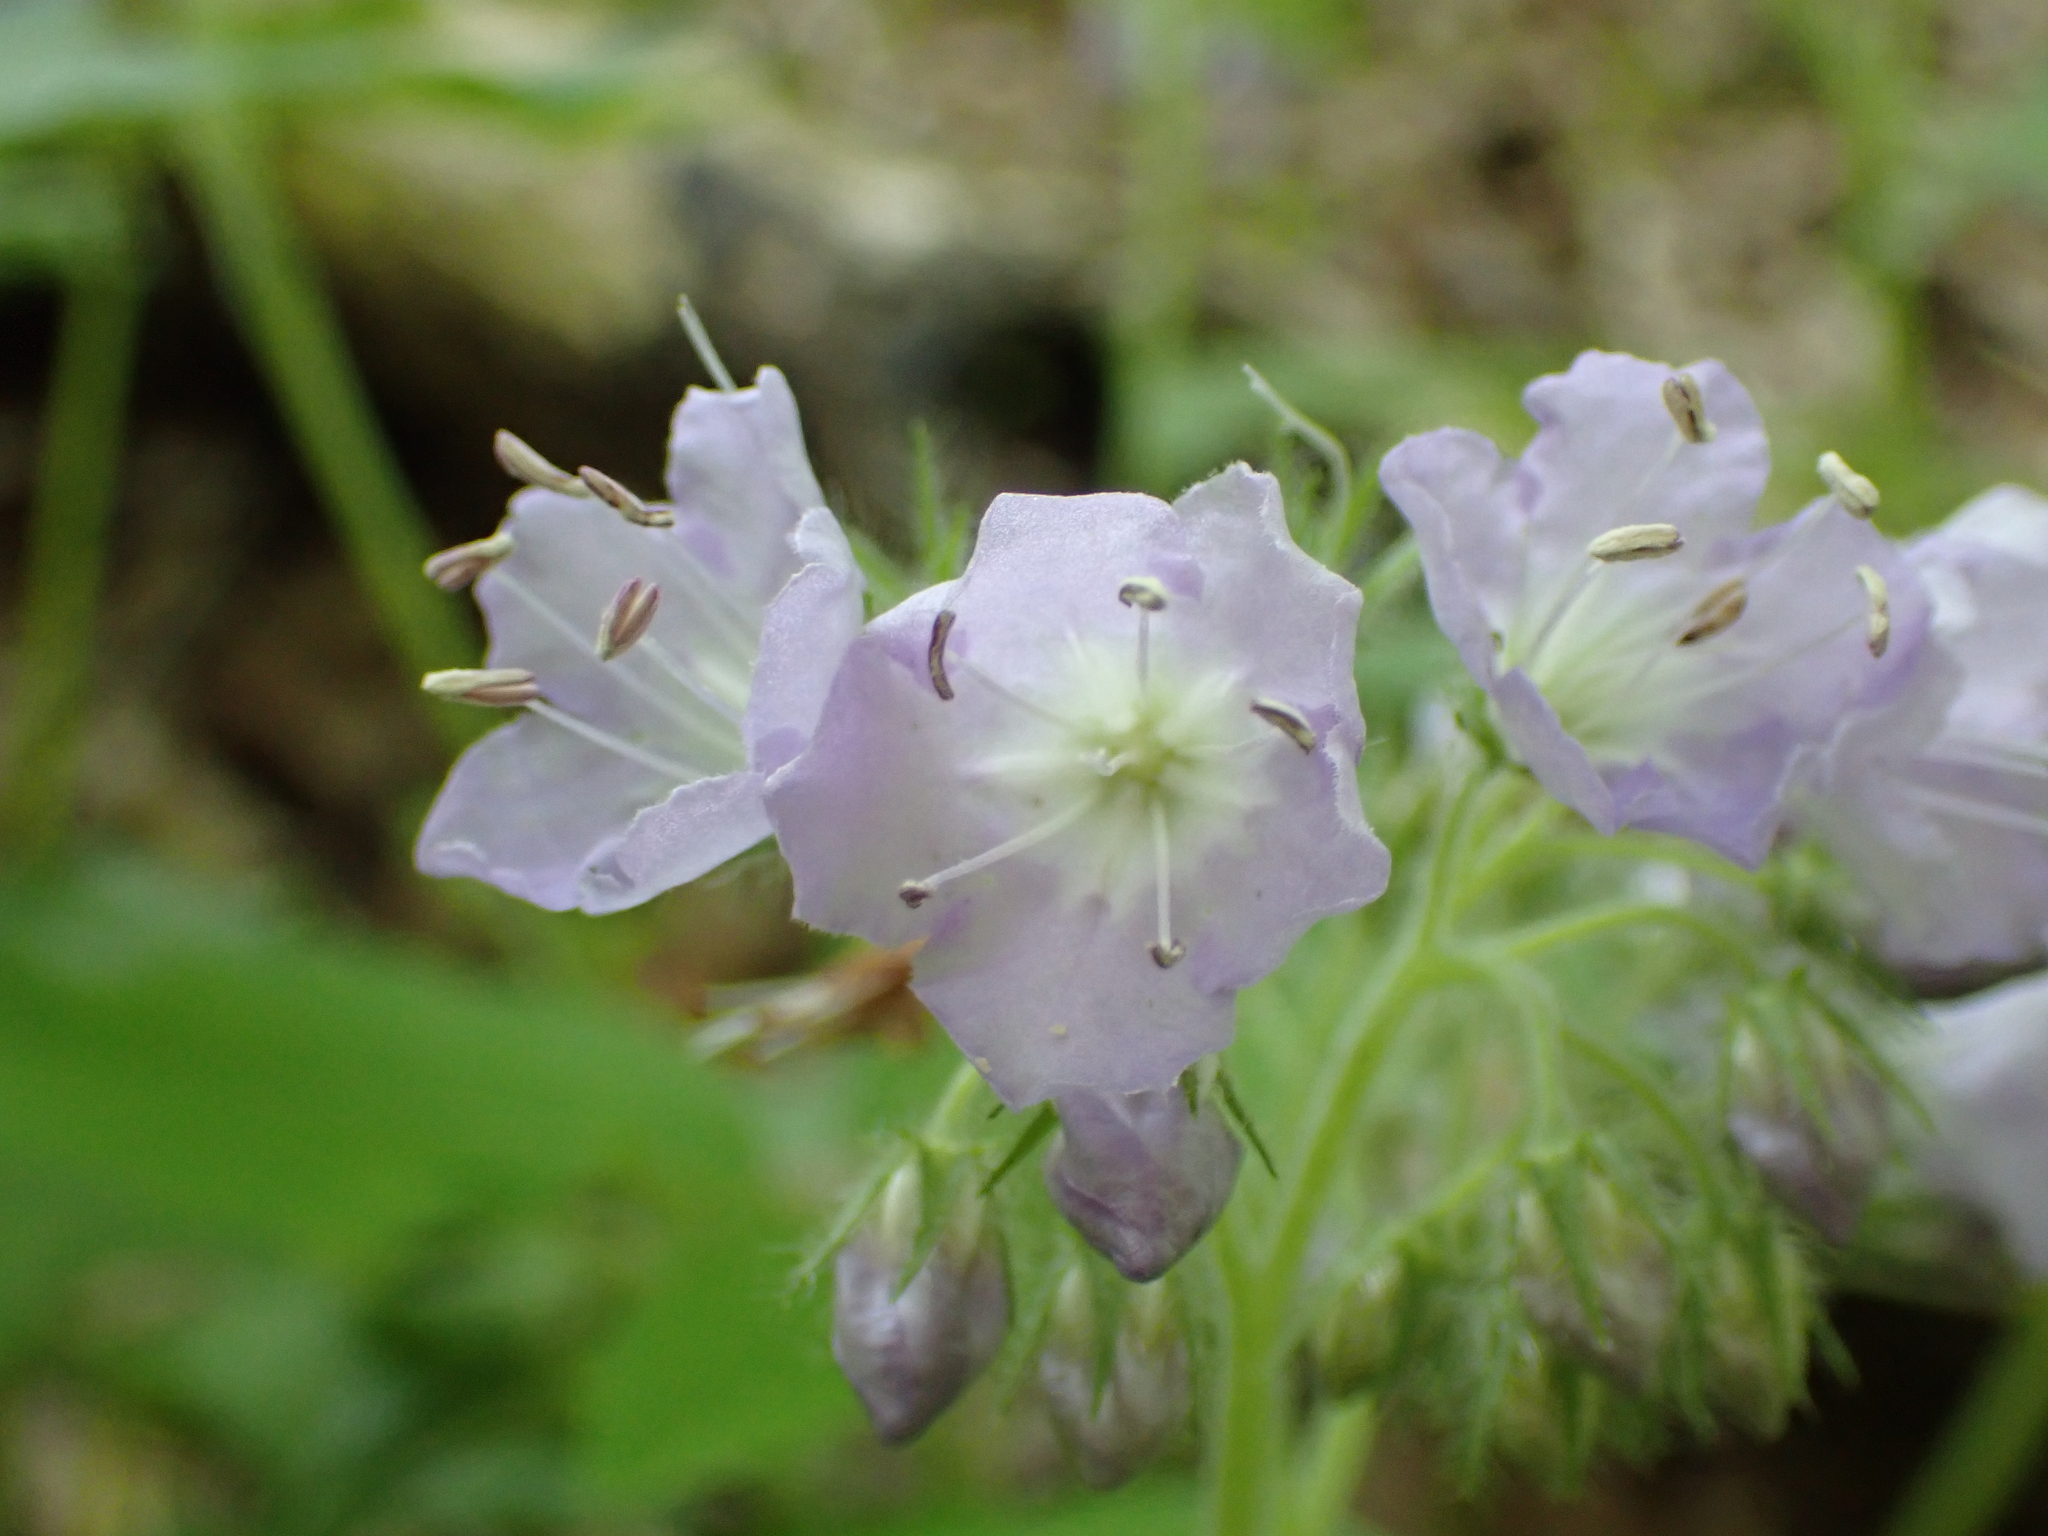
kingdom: Plantae
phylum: Tracheophyta
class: Magnoliopsida
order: Boraginales
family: Hydrophyllaceae
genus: Hydrophyllum
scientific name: Hydrophyllum appendiculatum
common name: Appendaged waterleaf
